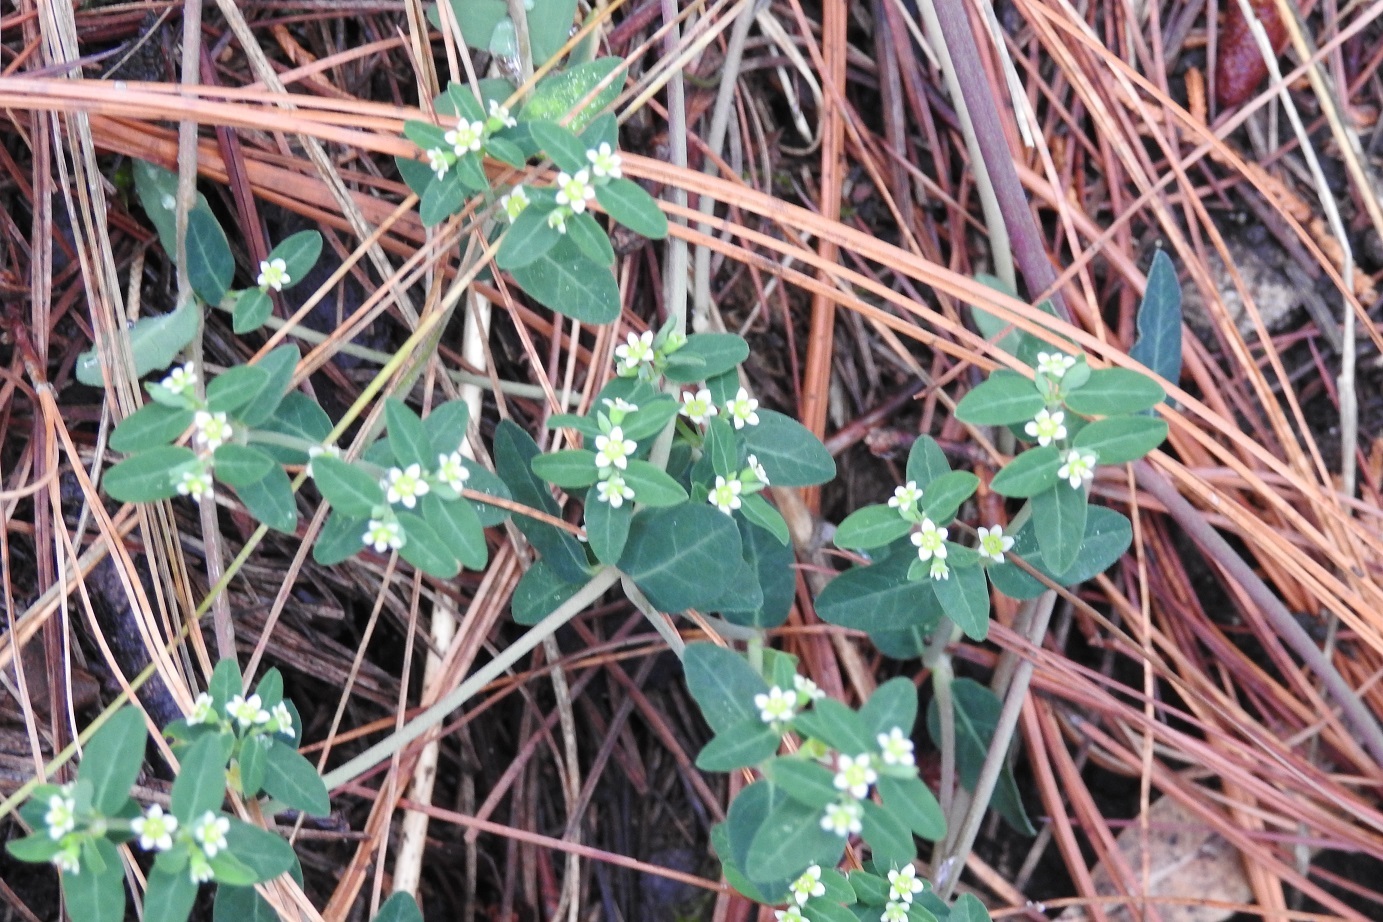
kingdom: Plantae
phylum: Tracheophyta
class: Magnoliopsida
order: Malpighiales
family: Euphorbiaceae
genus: Euphorbia
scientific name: Euphorbia macropus
